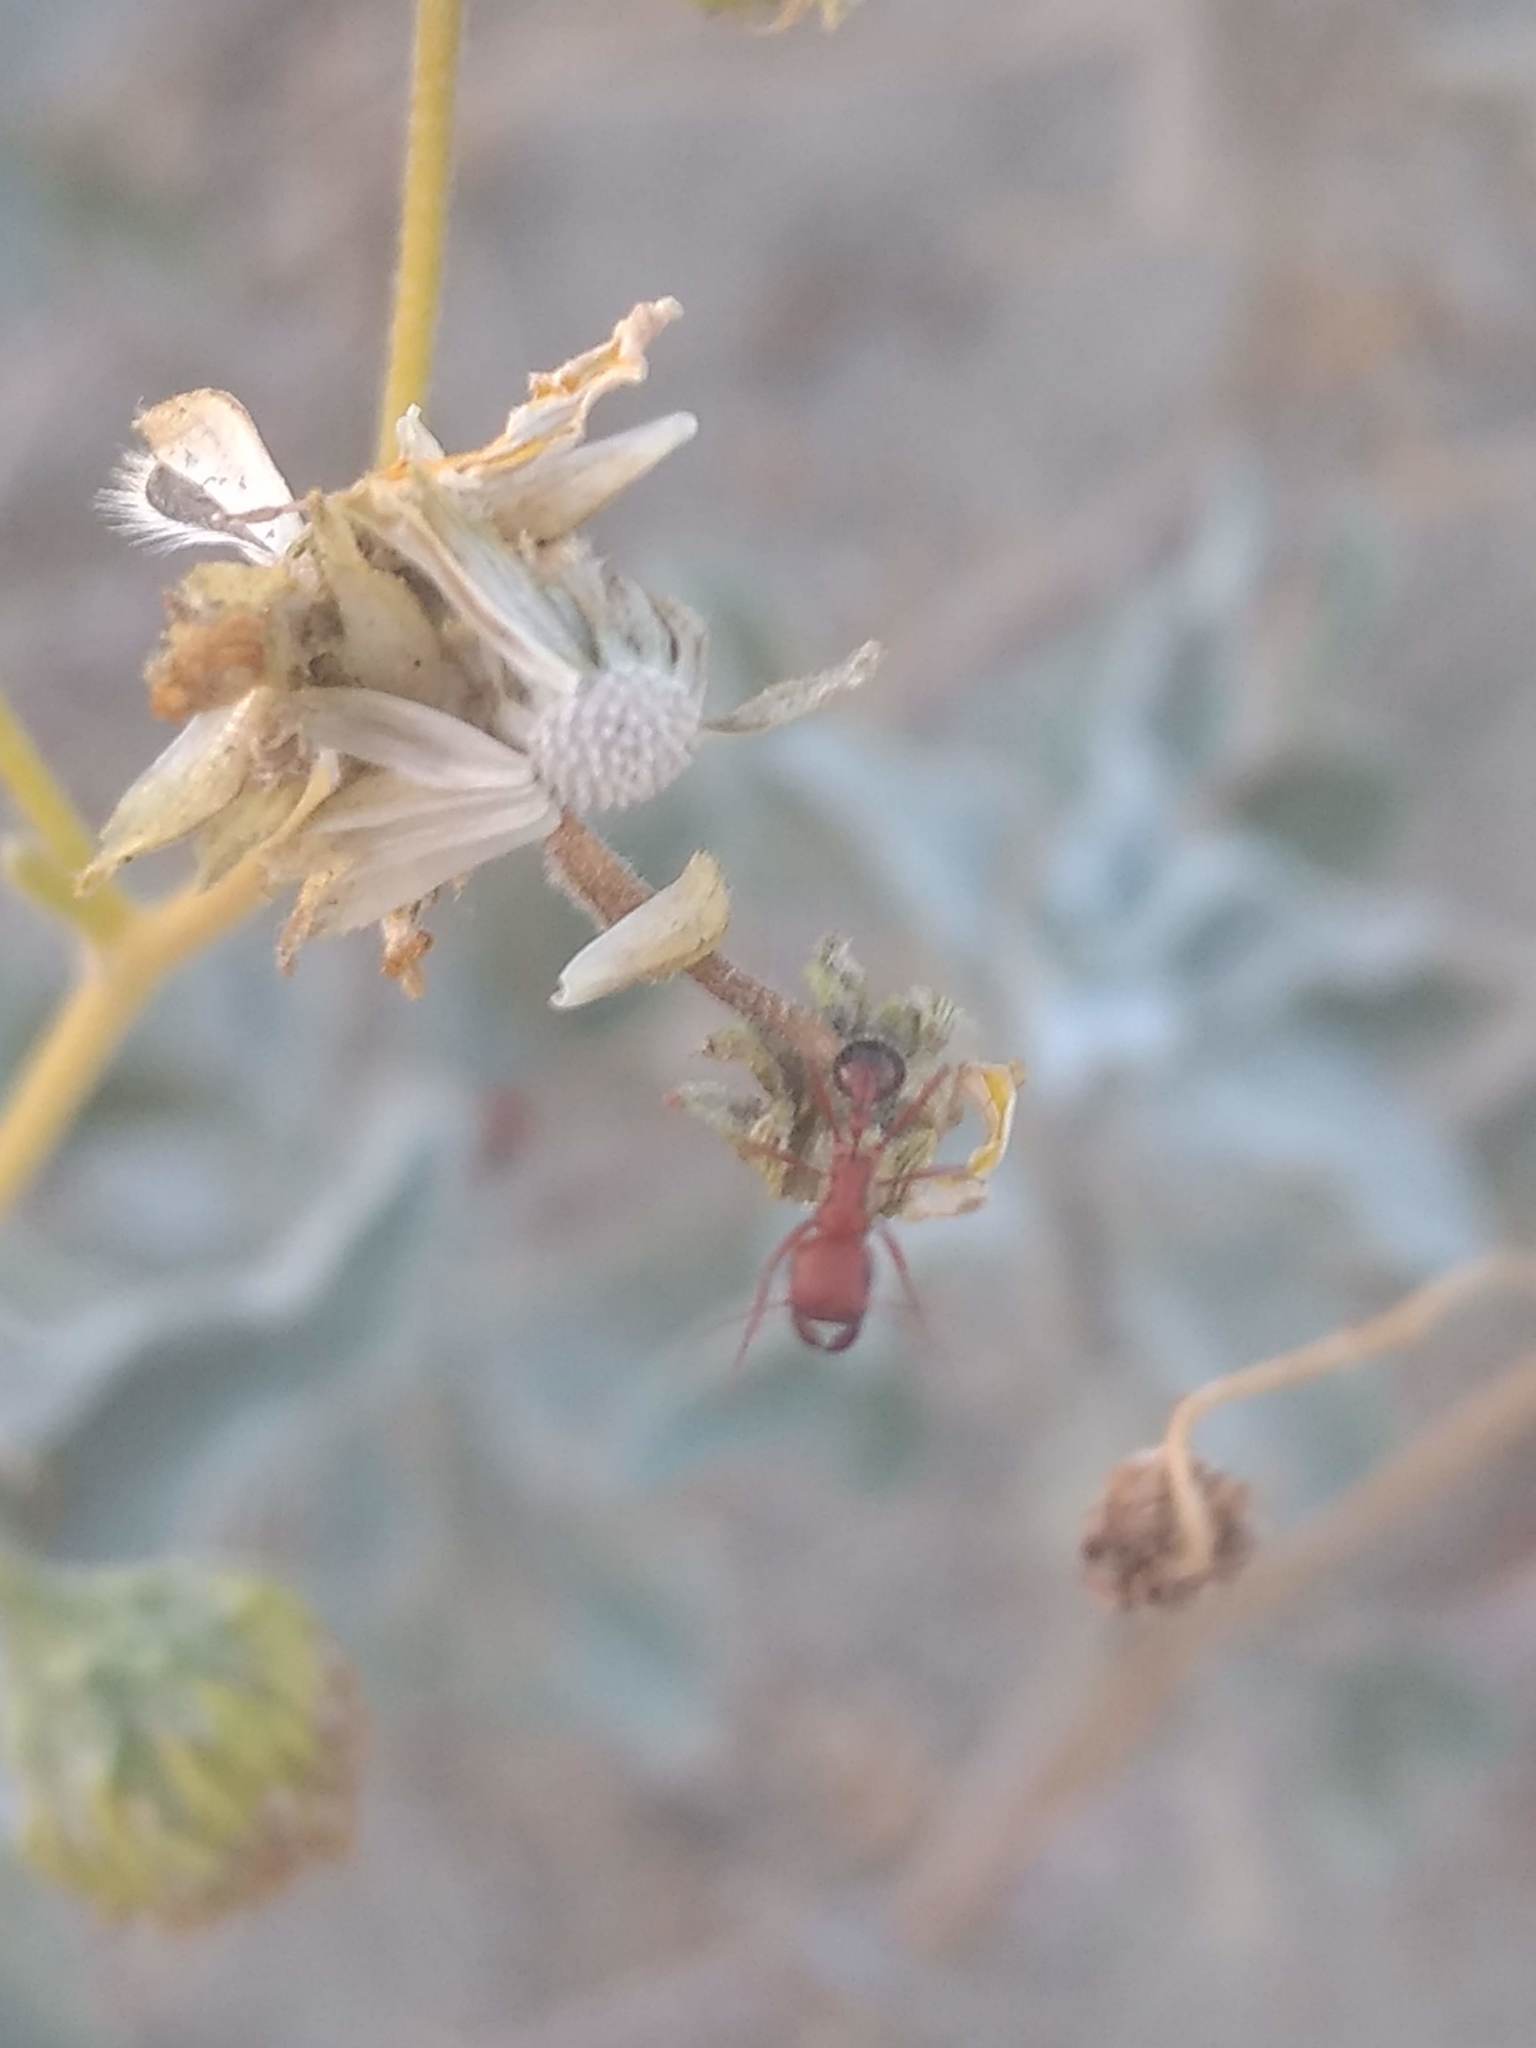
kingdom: Animalia
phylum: Arthropoda
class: Insecta
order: Hymenoptera
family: Formicidae
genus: Pogonomyrmex
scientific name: Pogonomyrmex californicus
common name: California harvester ant
